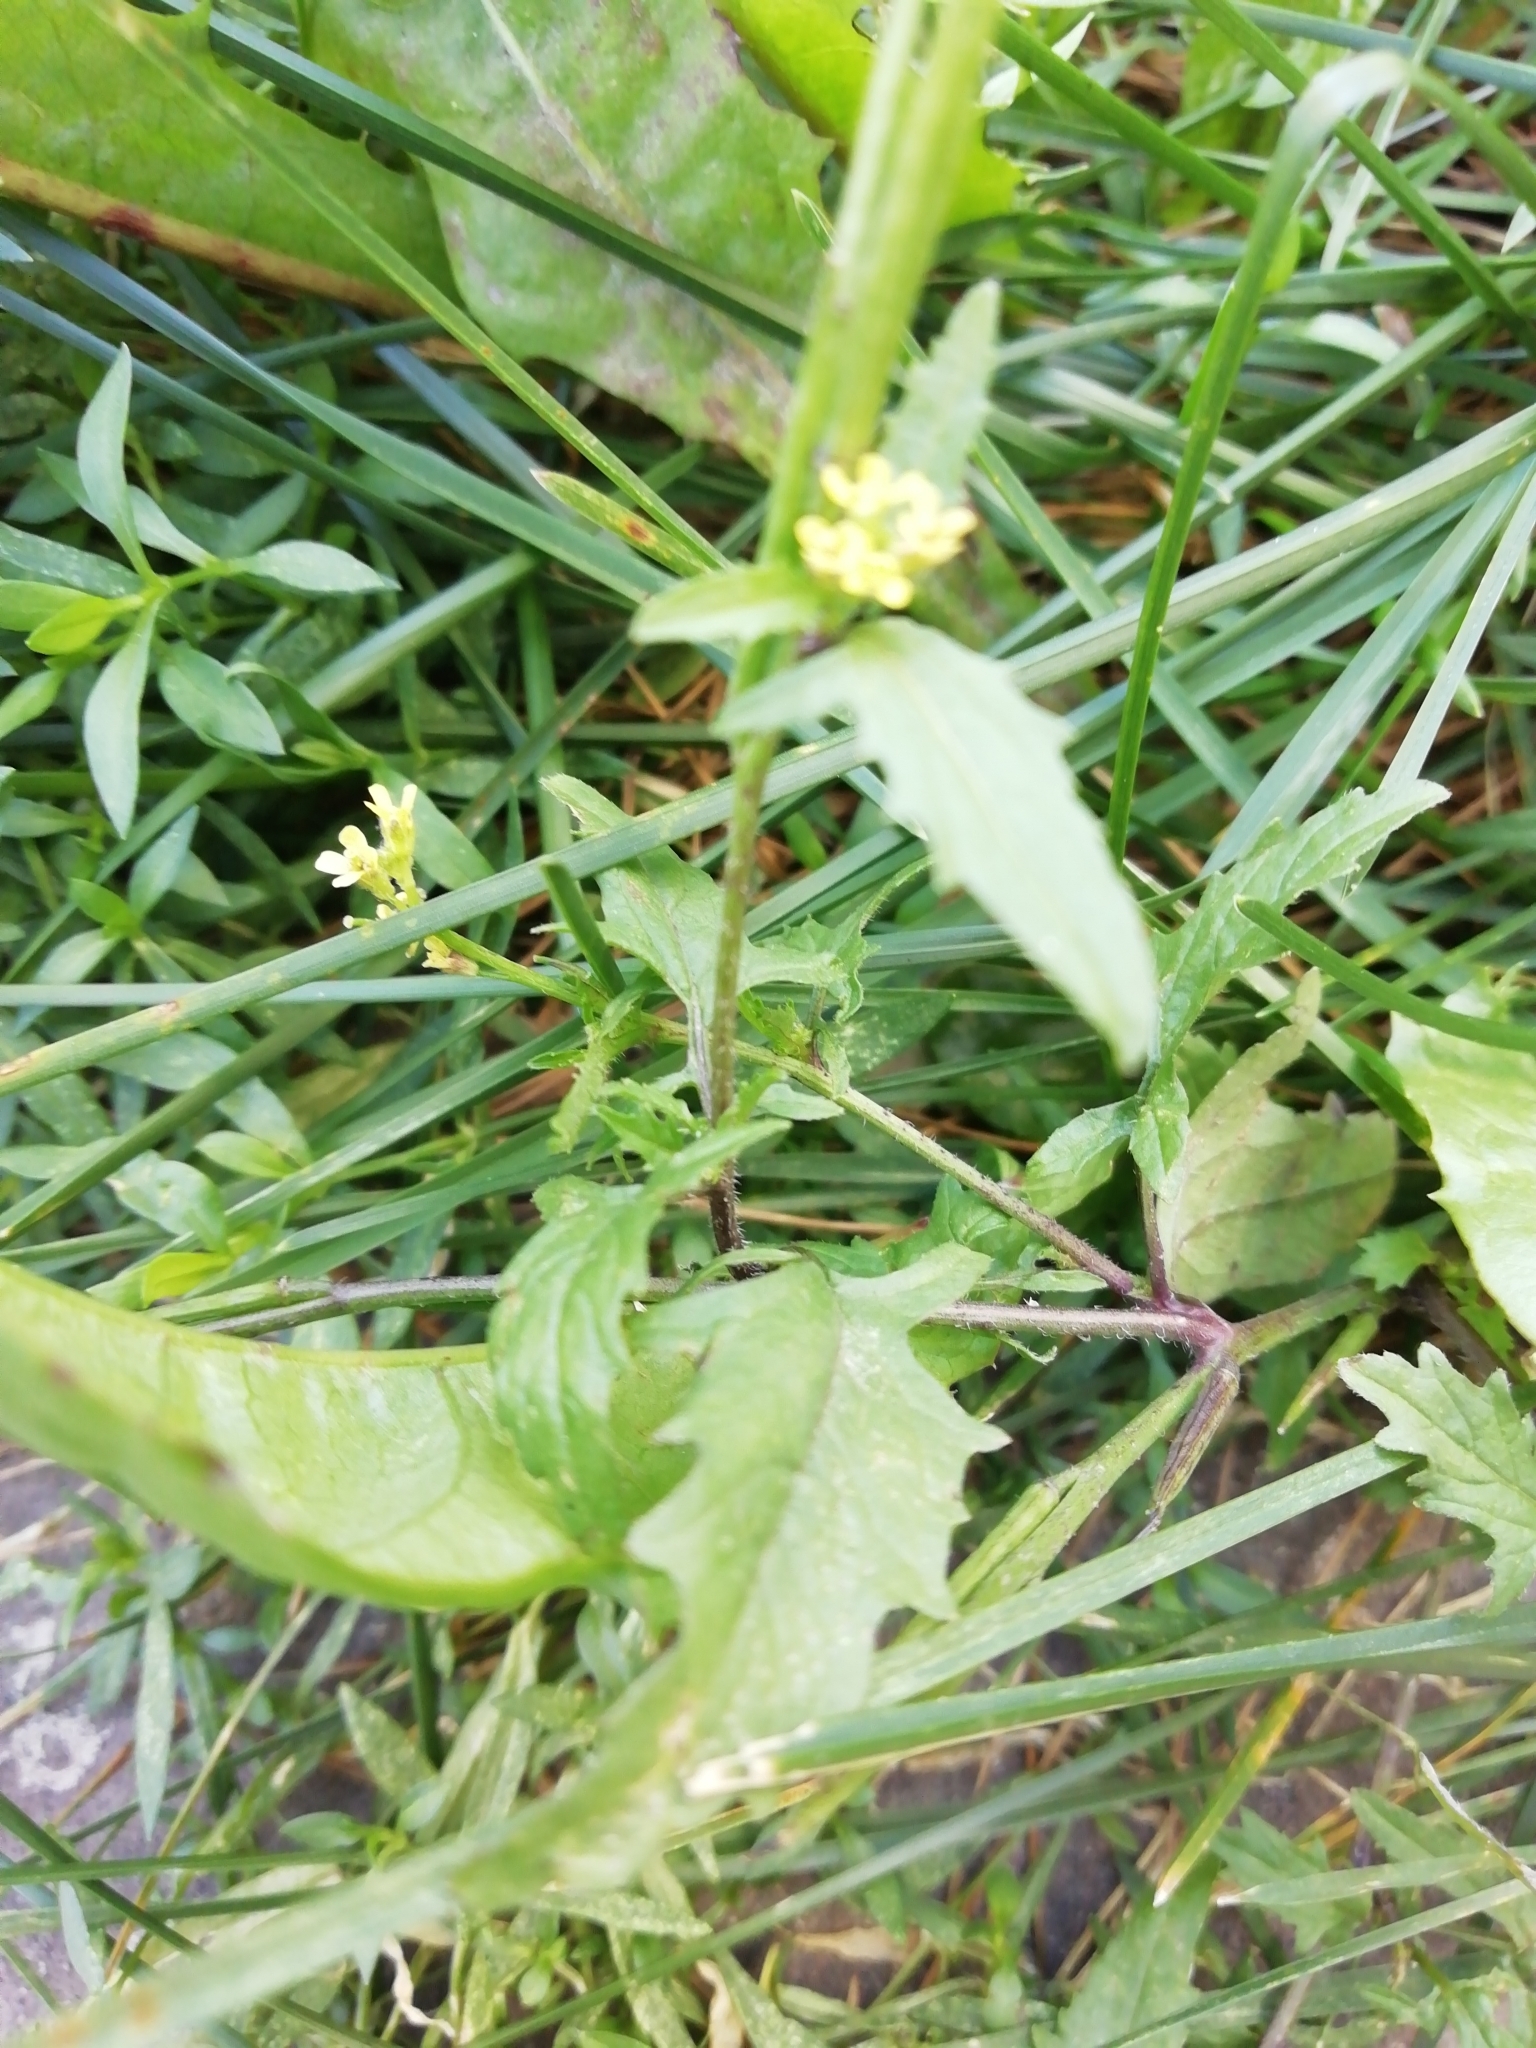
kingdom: Plantae
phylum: Tracheophyta
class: Magnoliopsida
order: Brassicales
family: Brassicaceae
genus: Sisymbrium
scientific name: Sisymbrium officinale
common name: Hedge mustard
